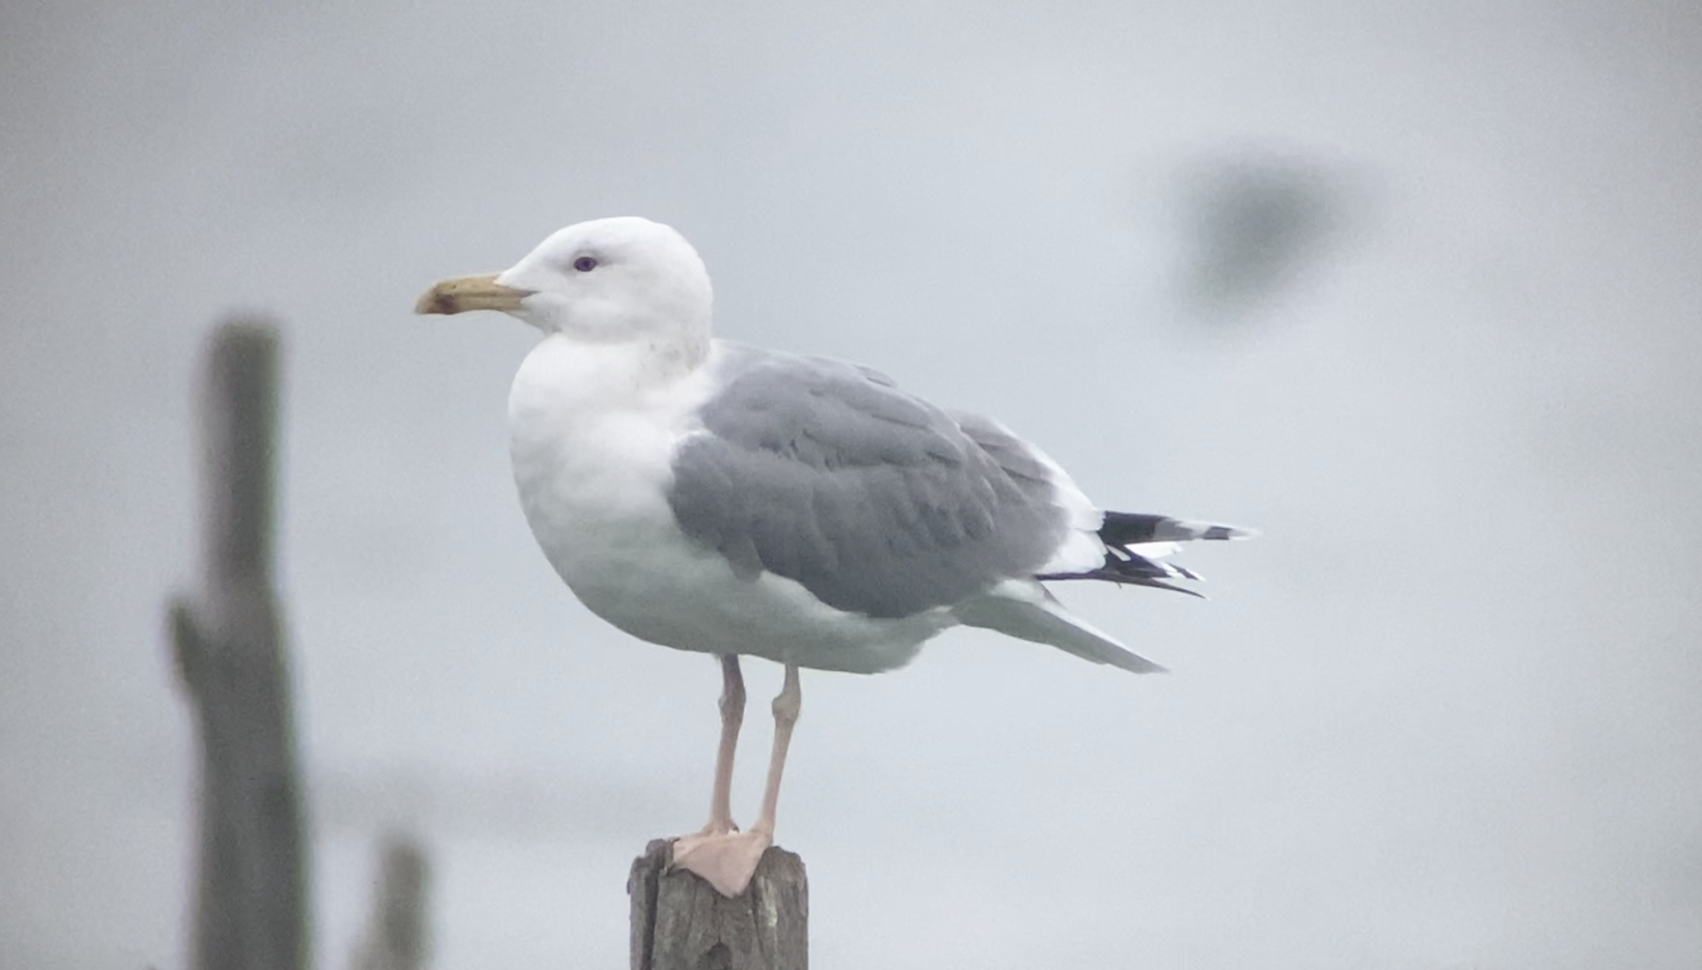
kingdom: Animalia
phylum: Chordata
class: Aves
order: Charadriiformes
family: Laridae
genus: Larus
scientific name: Larus cachinnans
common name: Caspian gull
